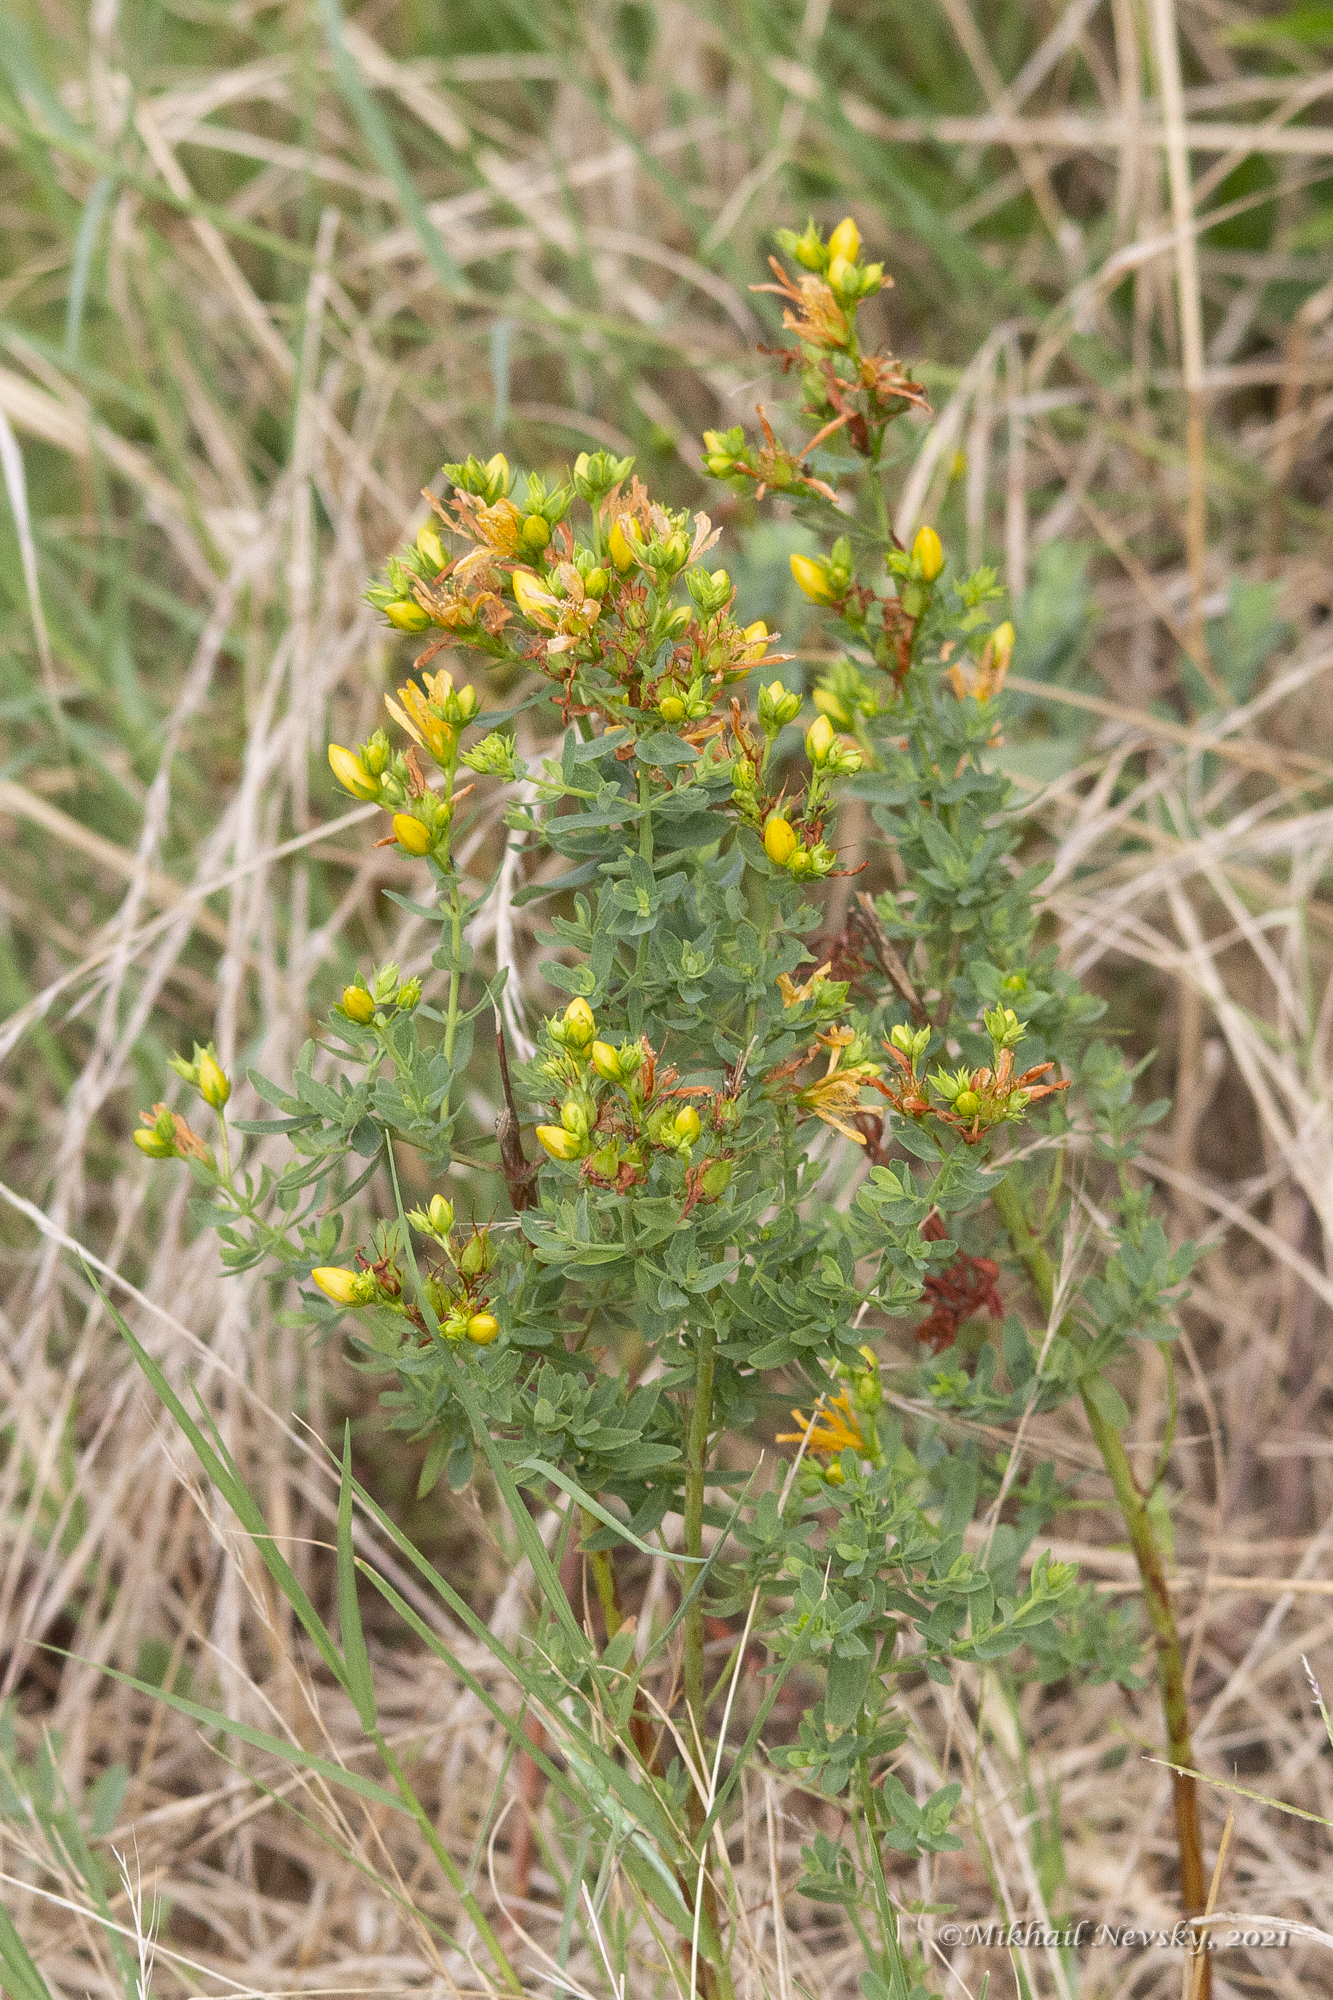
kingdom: Plantae
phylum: Tracheophyta
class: Magnoliopsida
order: Malpighiales
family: Hypericaceae
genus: Hypericum
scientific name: Hypericum perforatum
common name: Common st. johnswort
